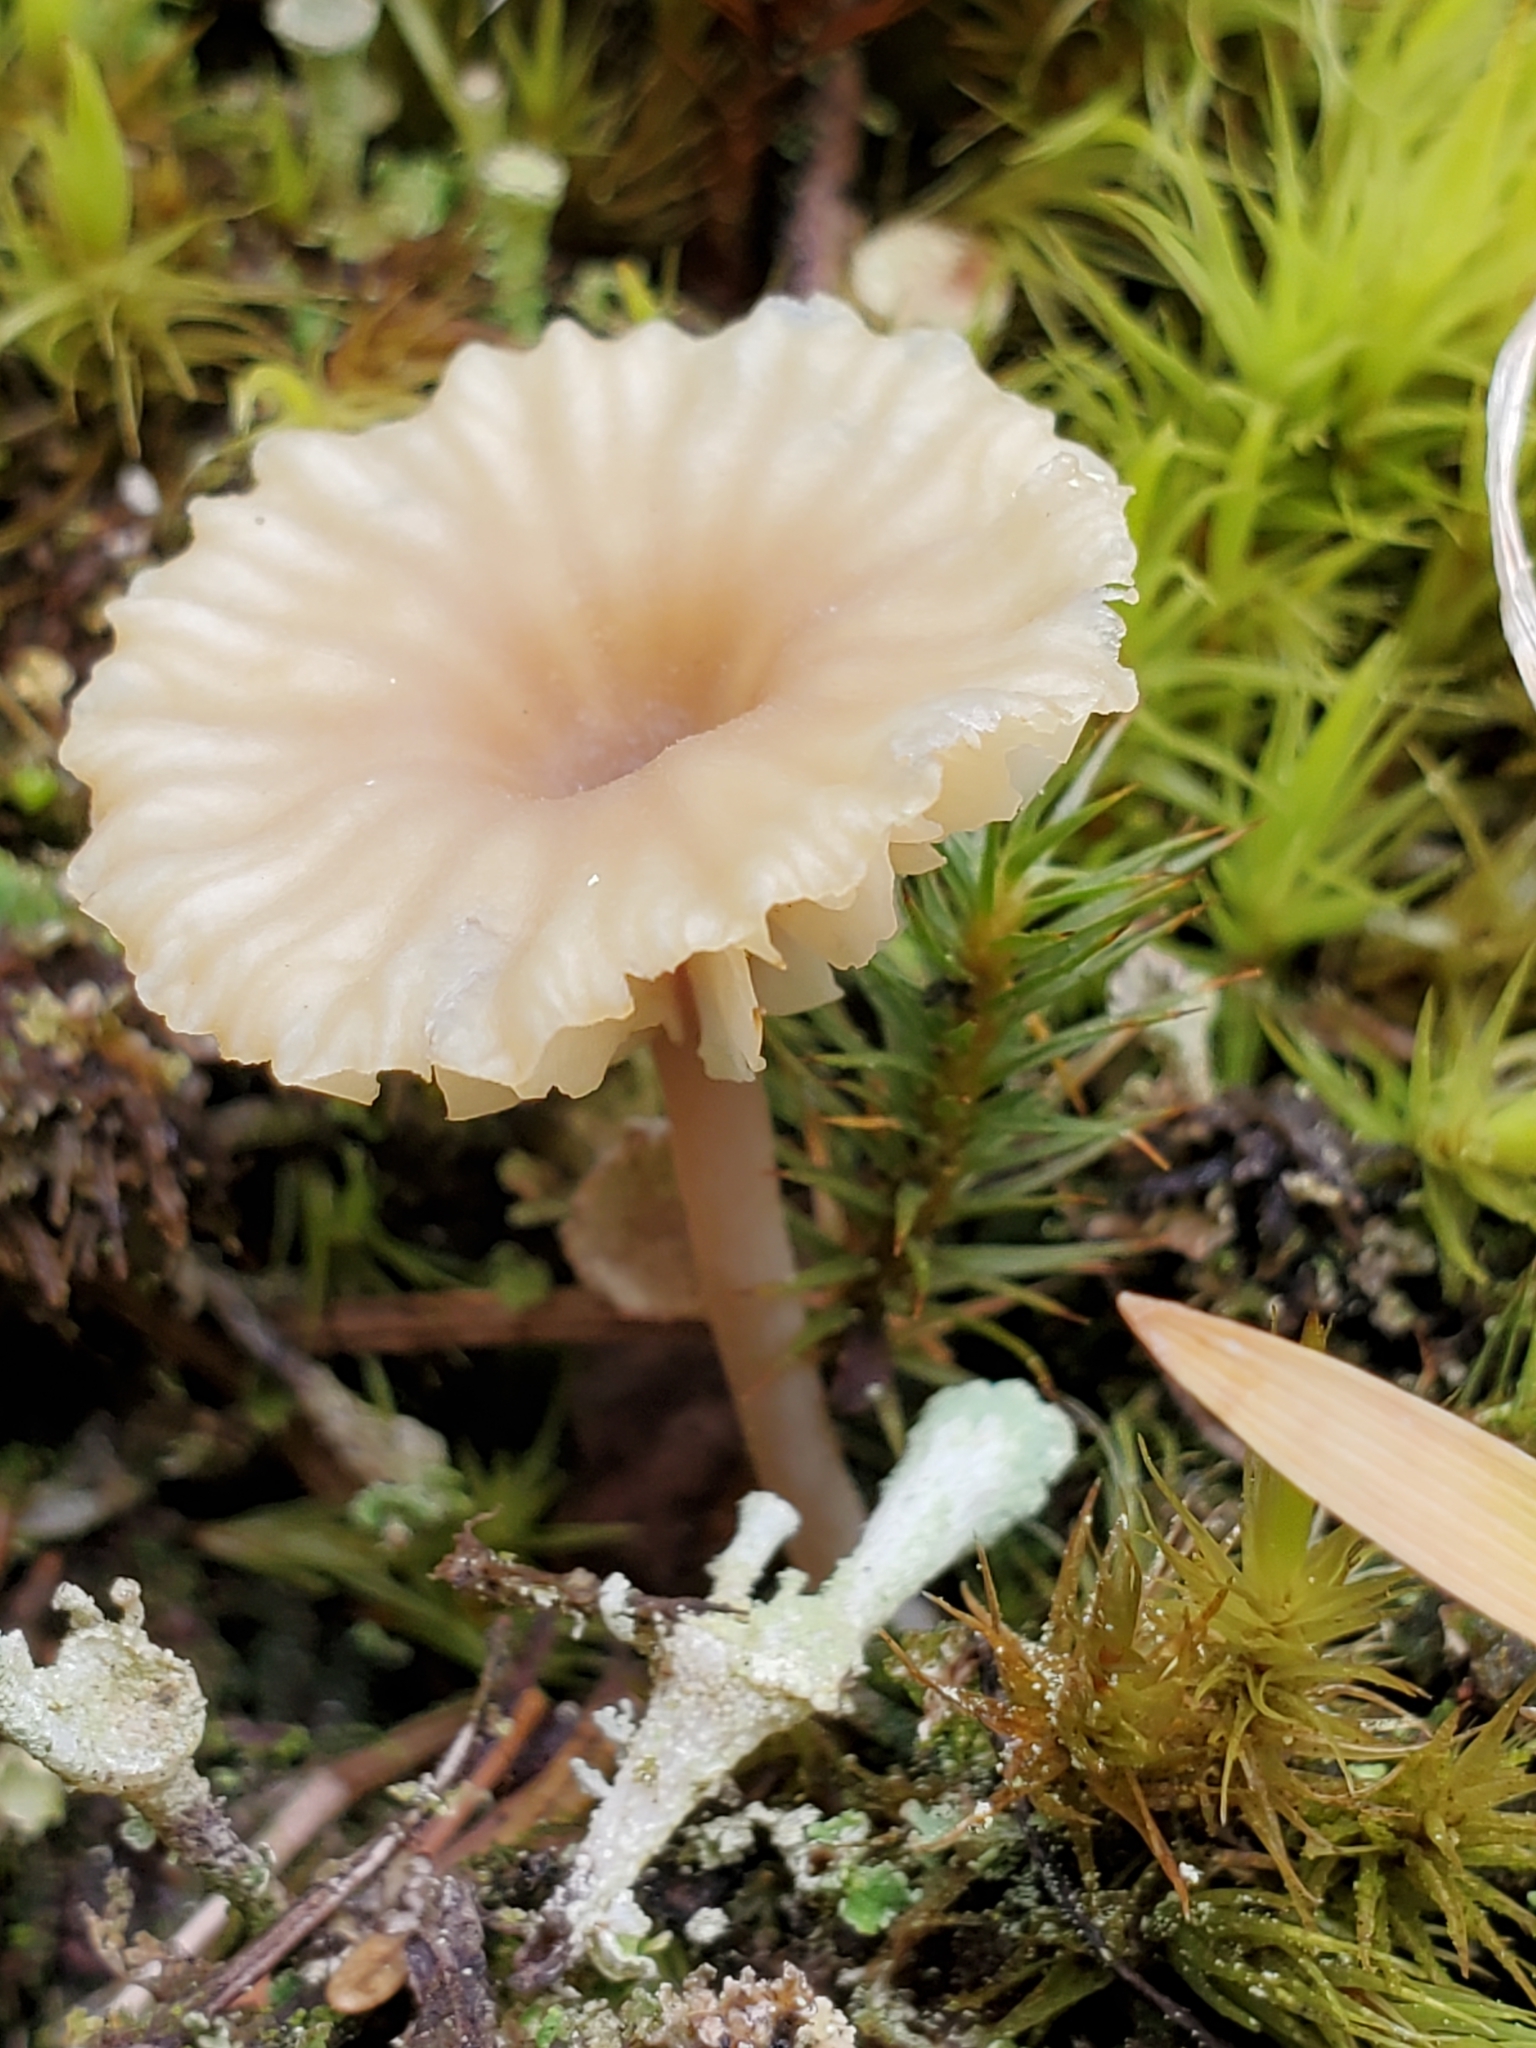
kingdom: Fungi
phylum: Basidiomycota
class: Agaricomycetes
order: Agaricales
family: Hygrophoraceae
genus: Lichenomphalia
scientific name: Lichenomphalia
